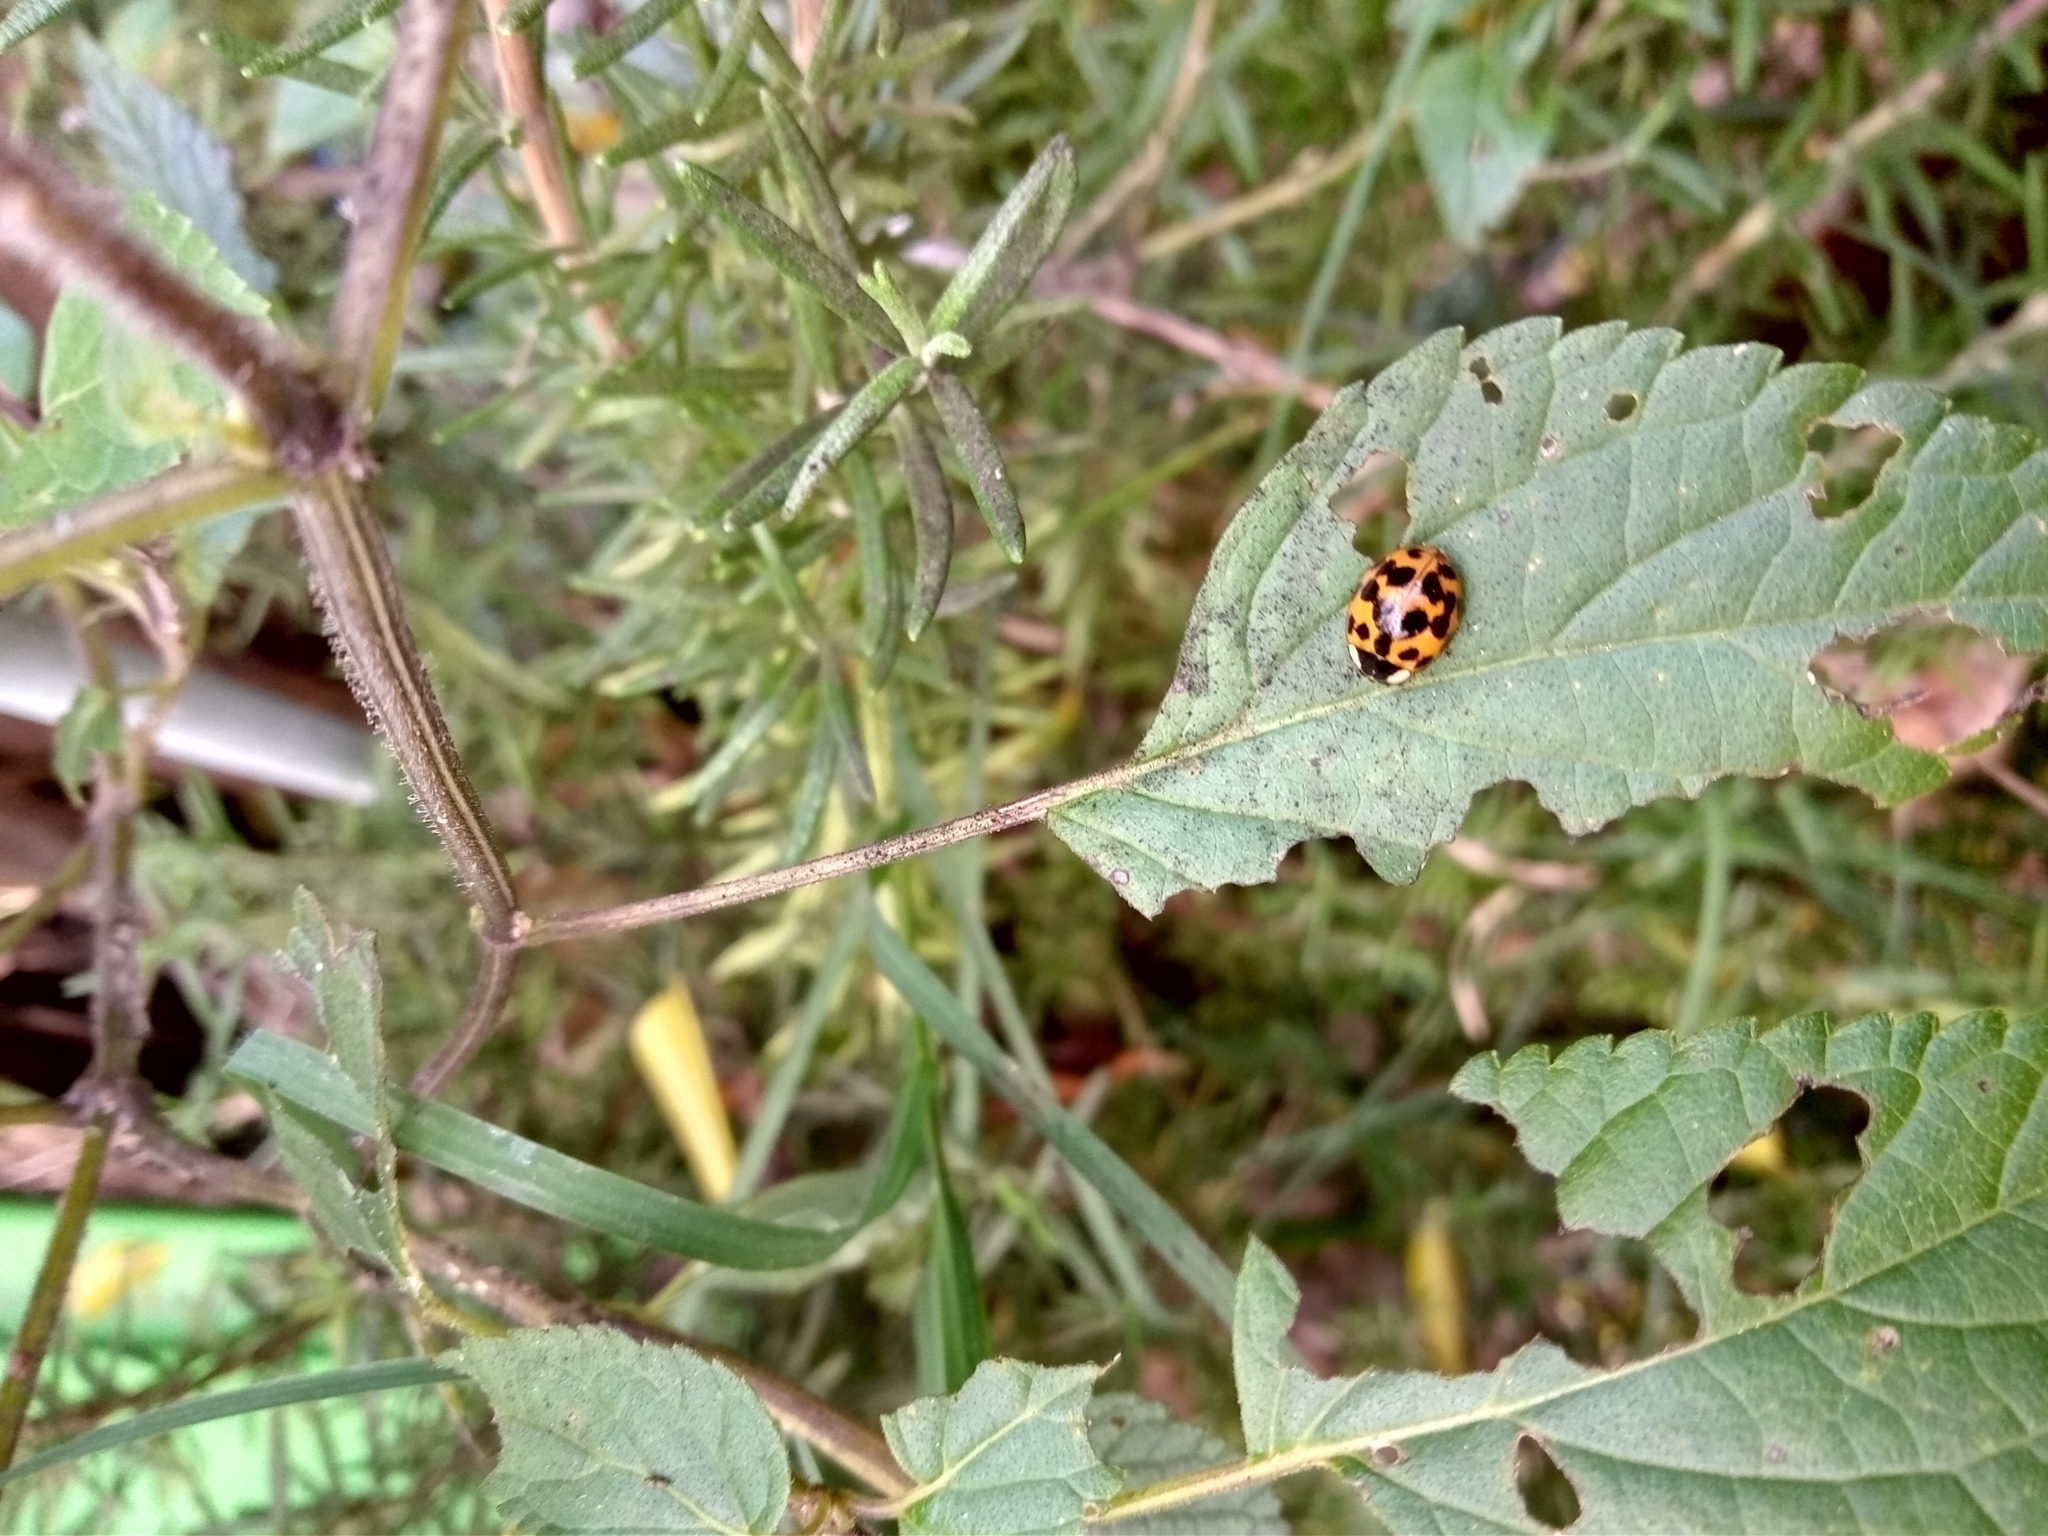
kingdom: Animalia
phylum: Arthropoda
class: Insecta
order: Coleoptera
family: Coccinellidae
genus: Harmonia
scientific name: Harmonia axyridis
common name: Harlequin ladybird
